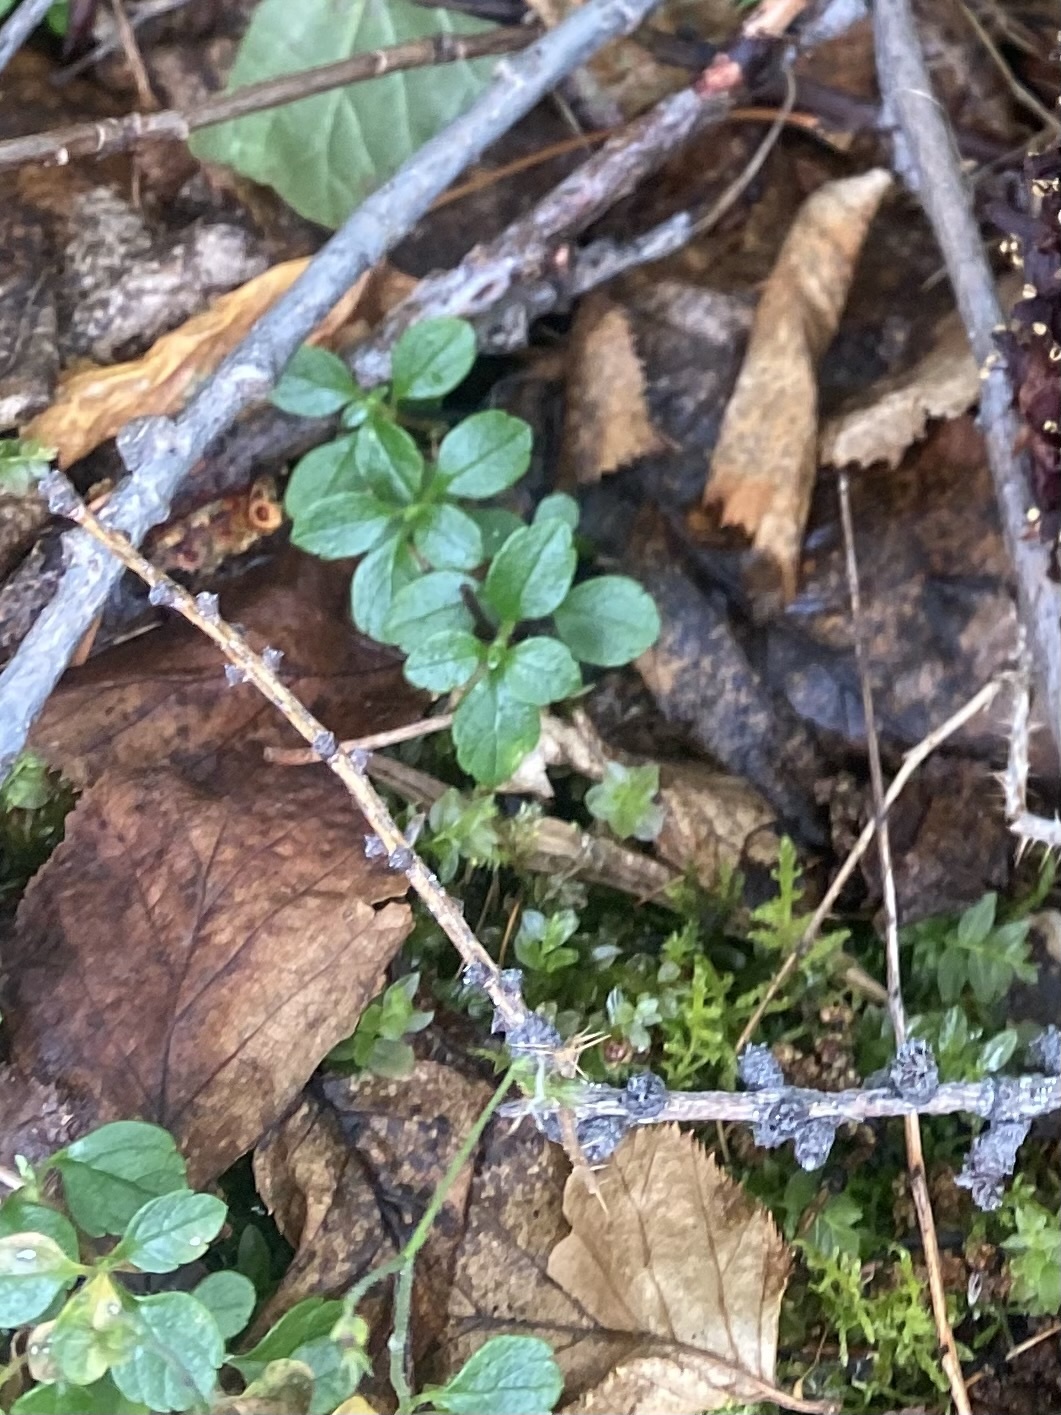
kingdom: Plantae
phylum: Tracheophyta
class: Magnoliopsida
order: Dipsacales
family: Caprifoliaceae
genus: Linnaea
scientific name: Linnaea borealis
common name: Twinflower
